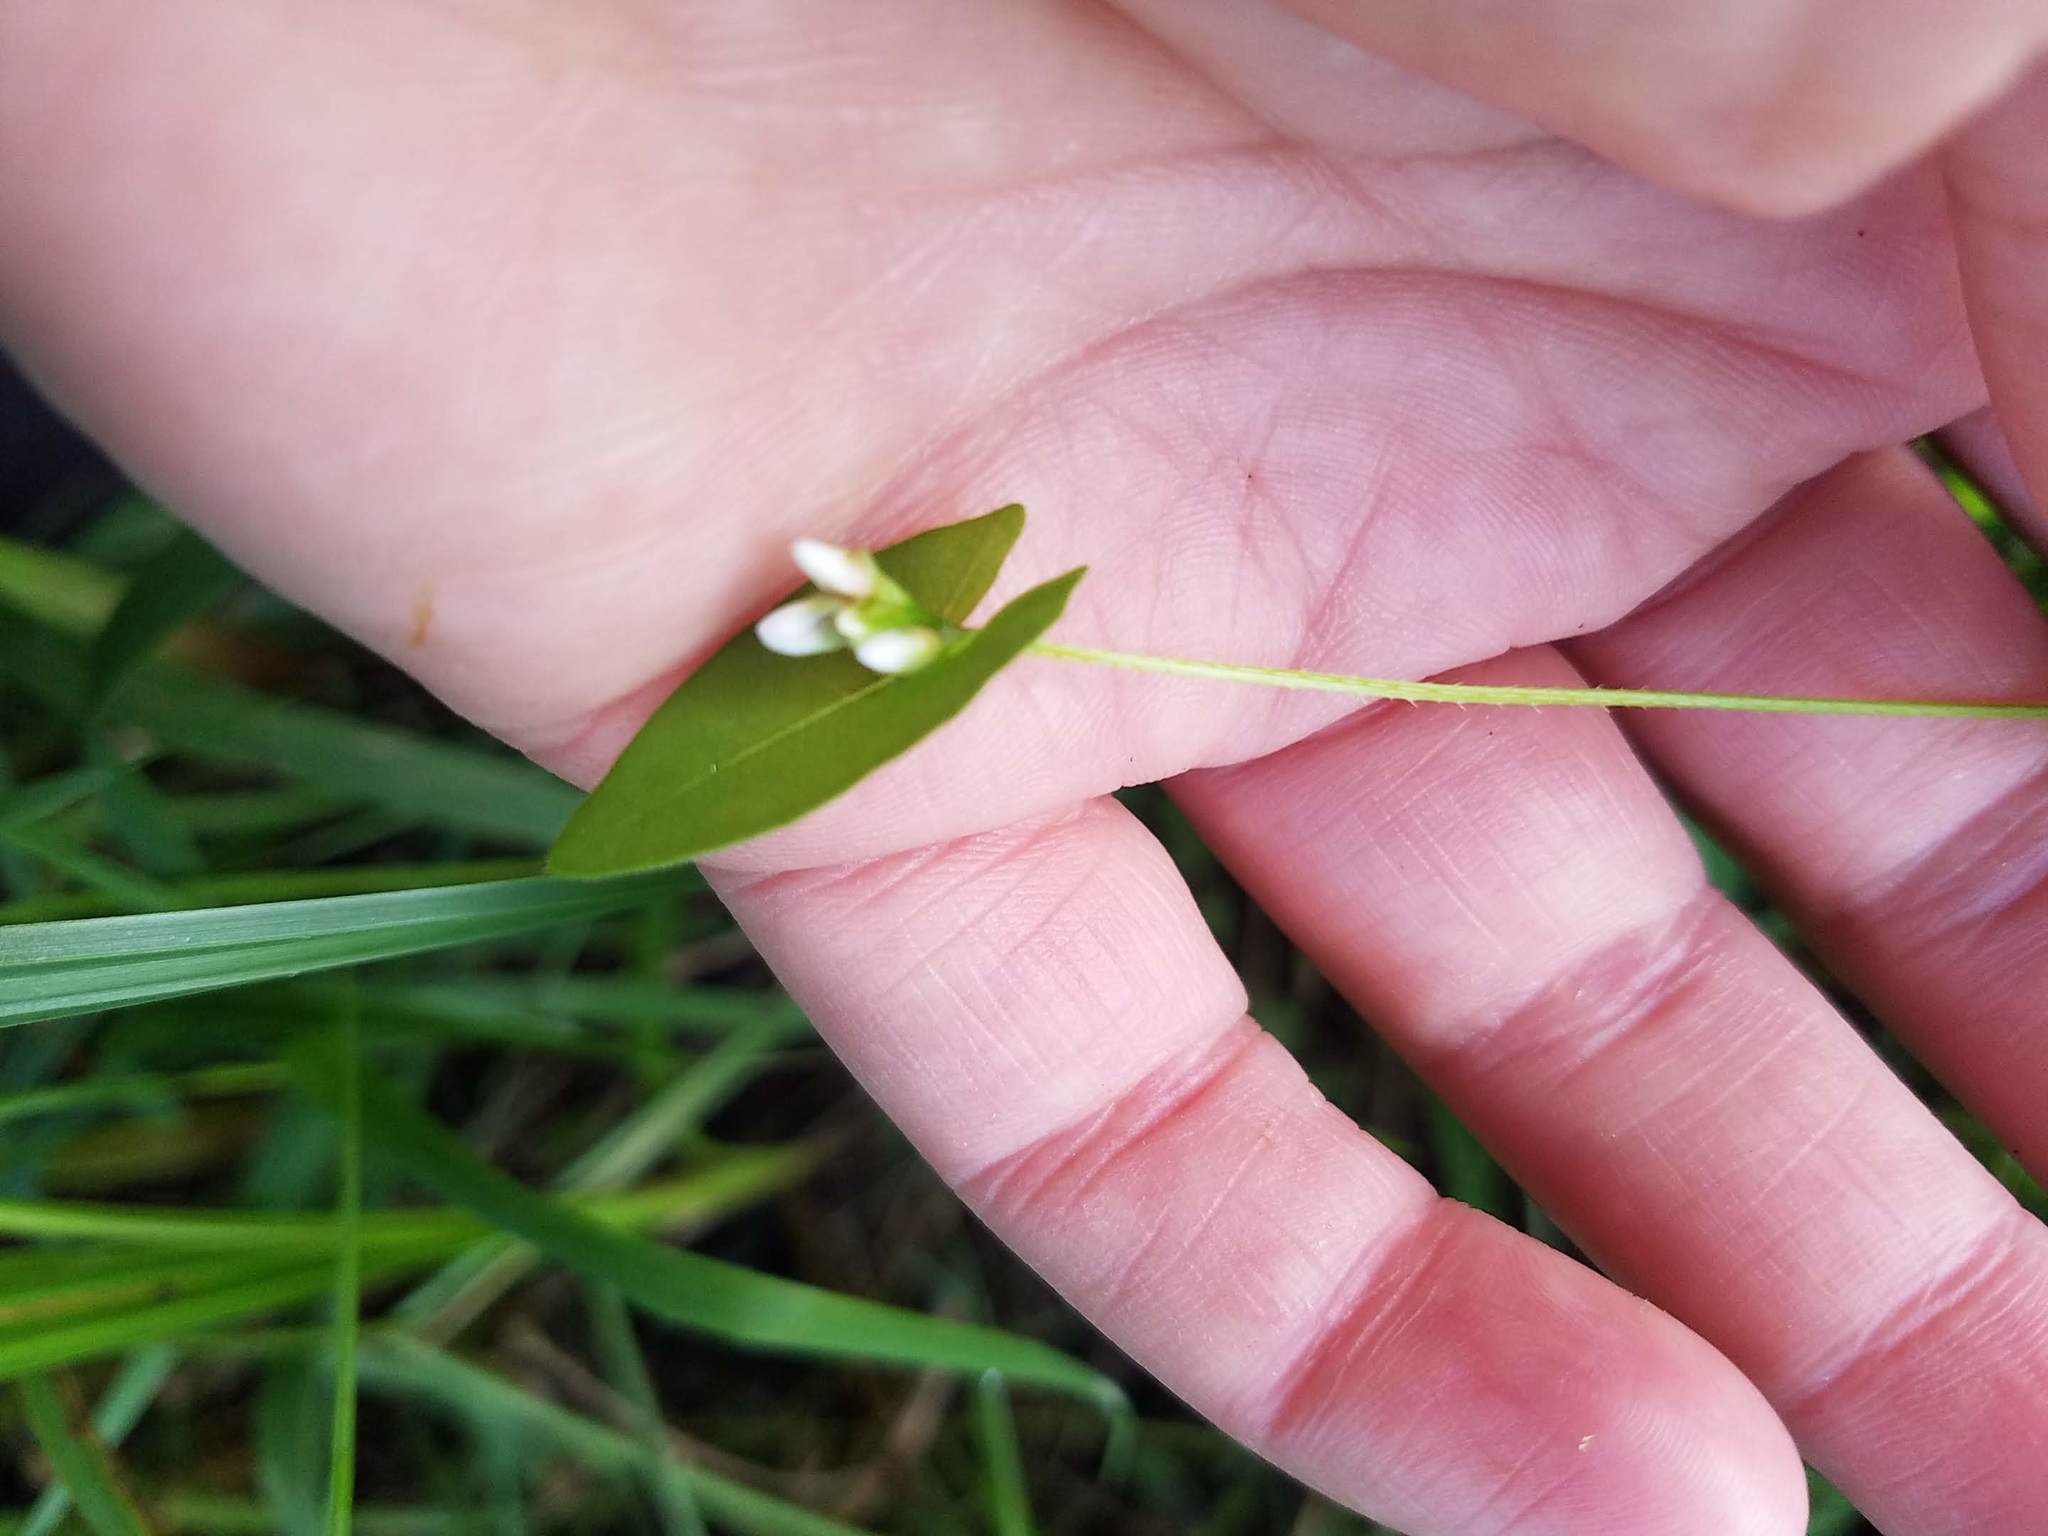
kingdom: Plantae
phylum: Tracheophyta
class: Magnoliopsida
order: Caryophyllales
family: Polygonaceae
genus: Persicaria
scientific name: Persicaria sagittata
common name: American tearthumb
